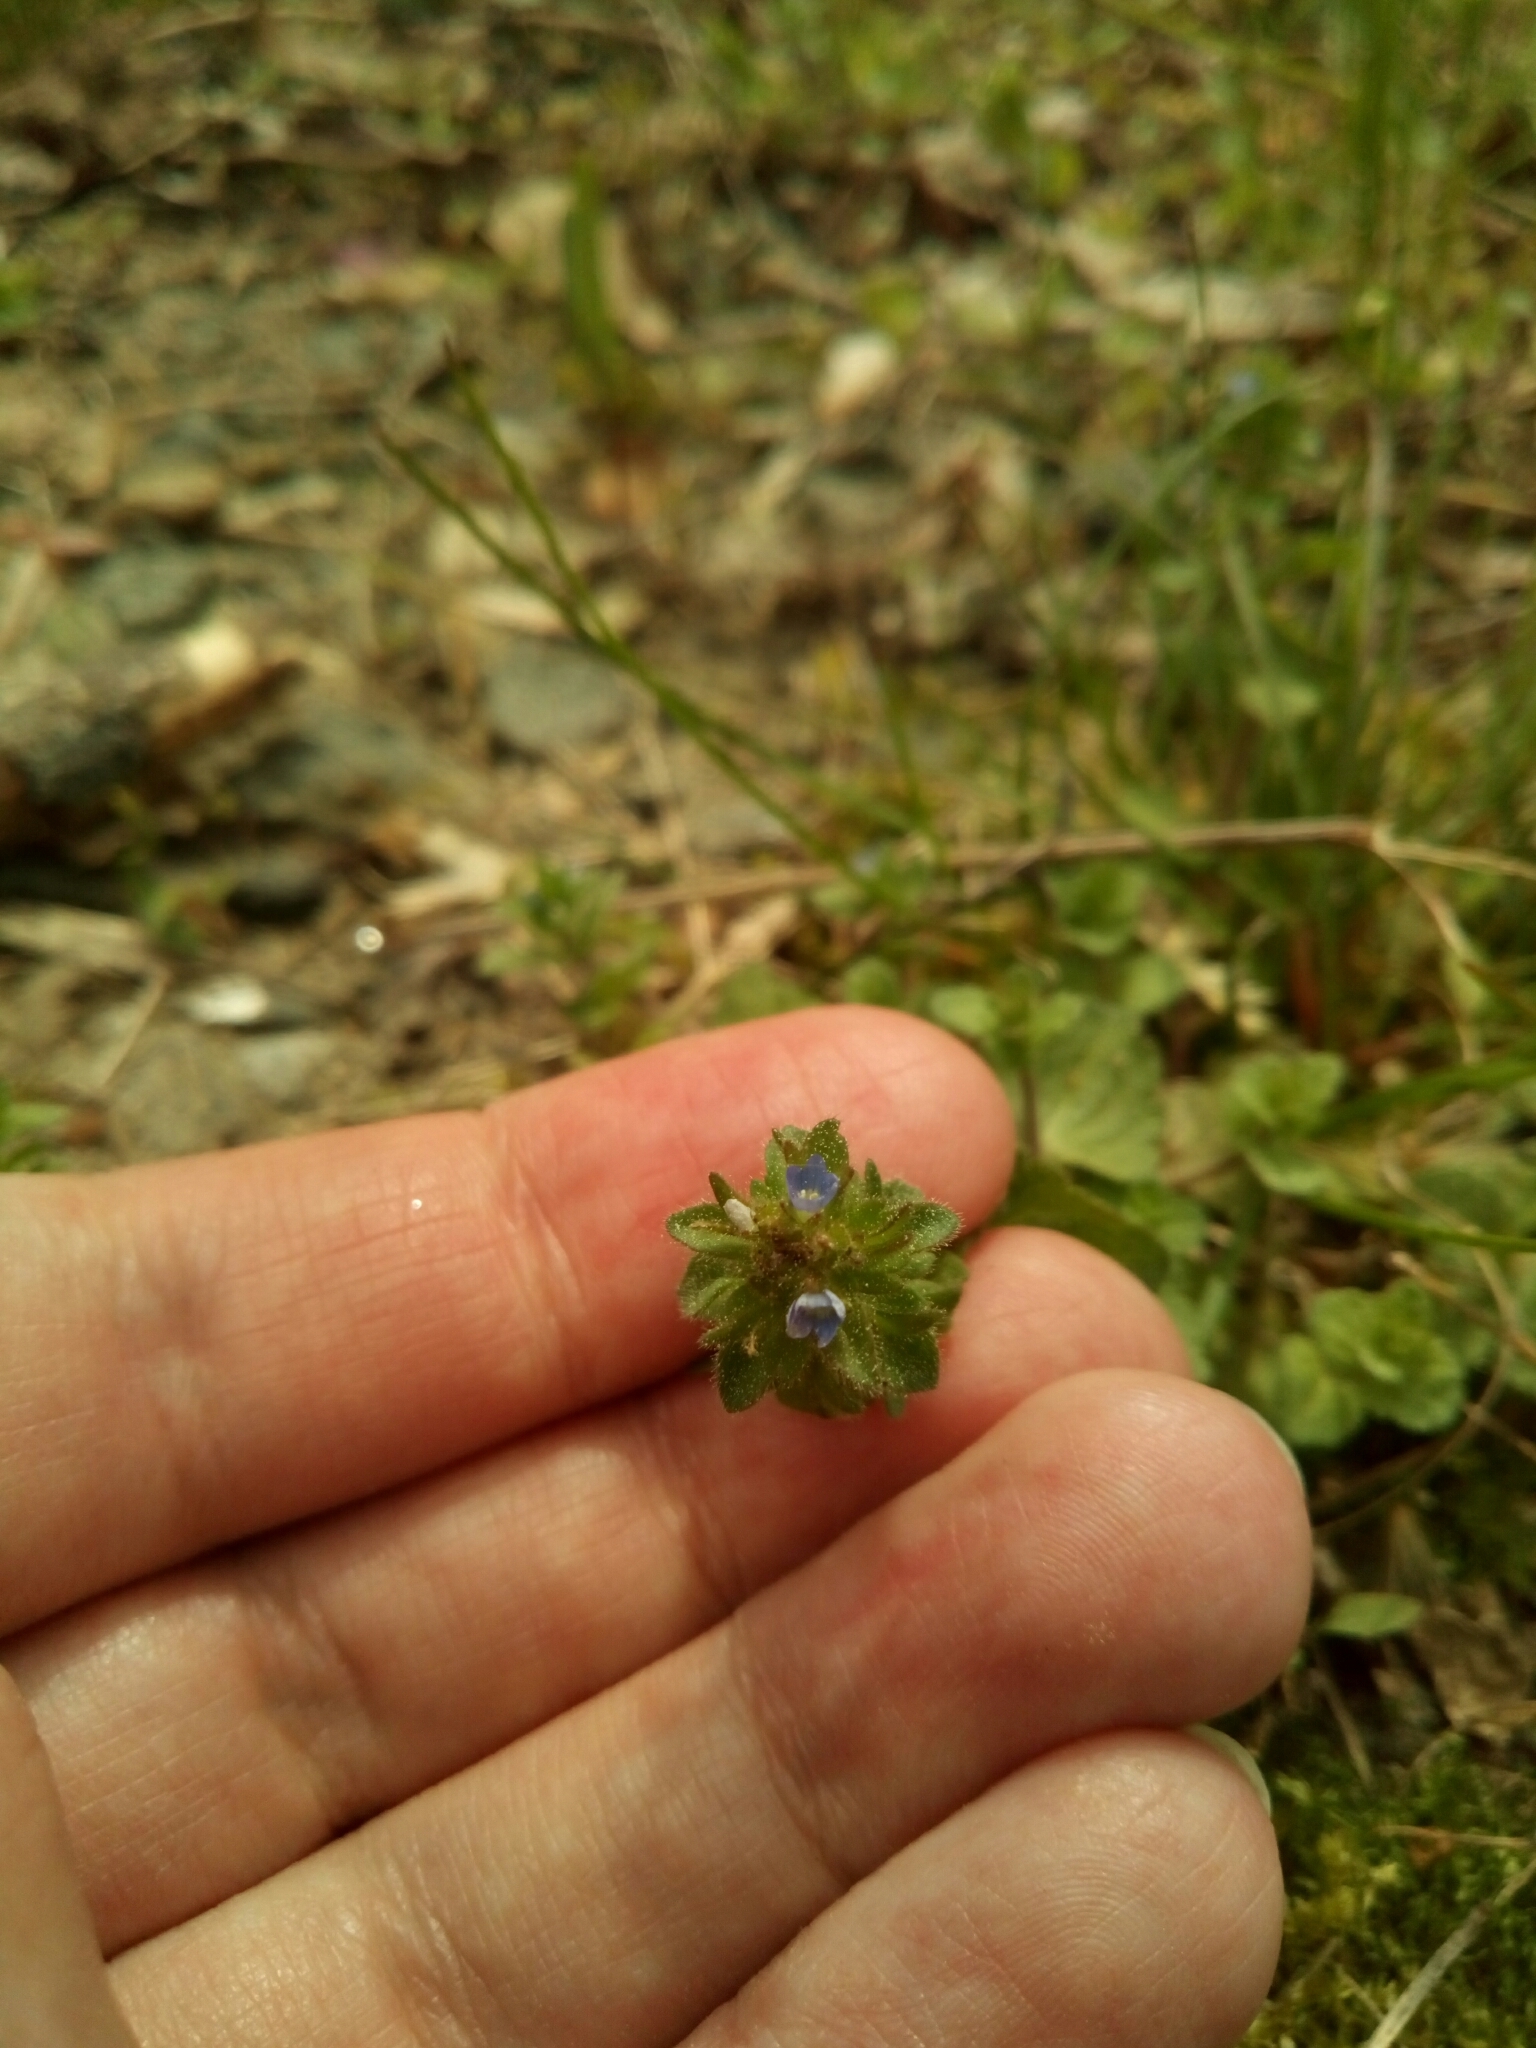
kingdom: Plantae
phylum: Tracheophyta
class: Magnoliopsida
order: Lamiales
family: Plantaginaceae
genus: Veronica
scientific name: Veronica arvensis
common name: Corn speedwell
